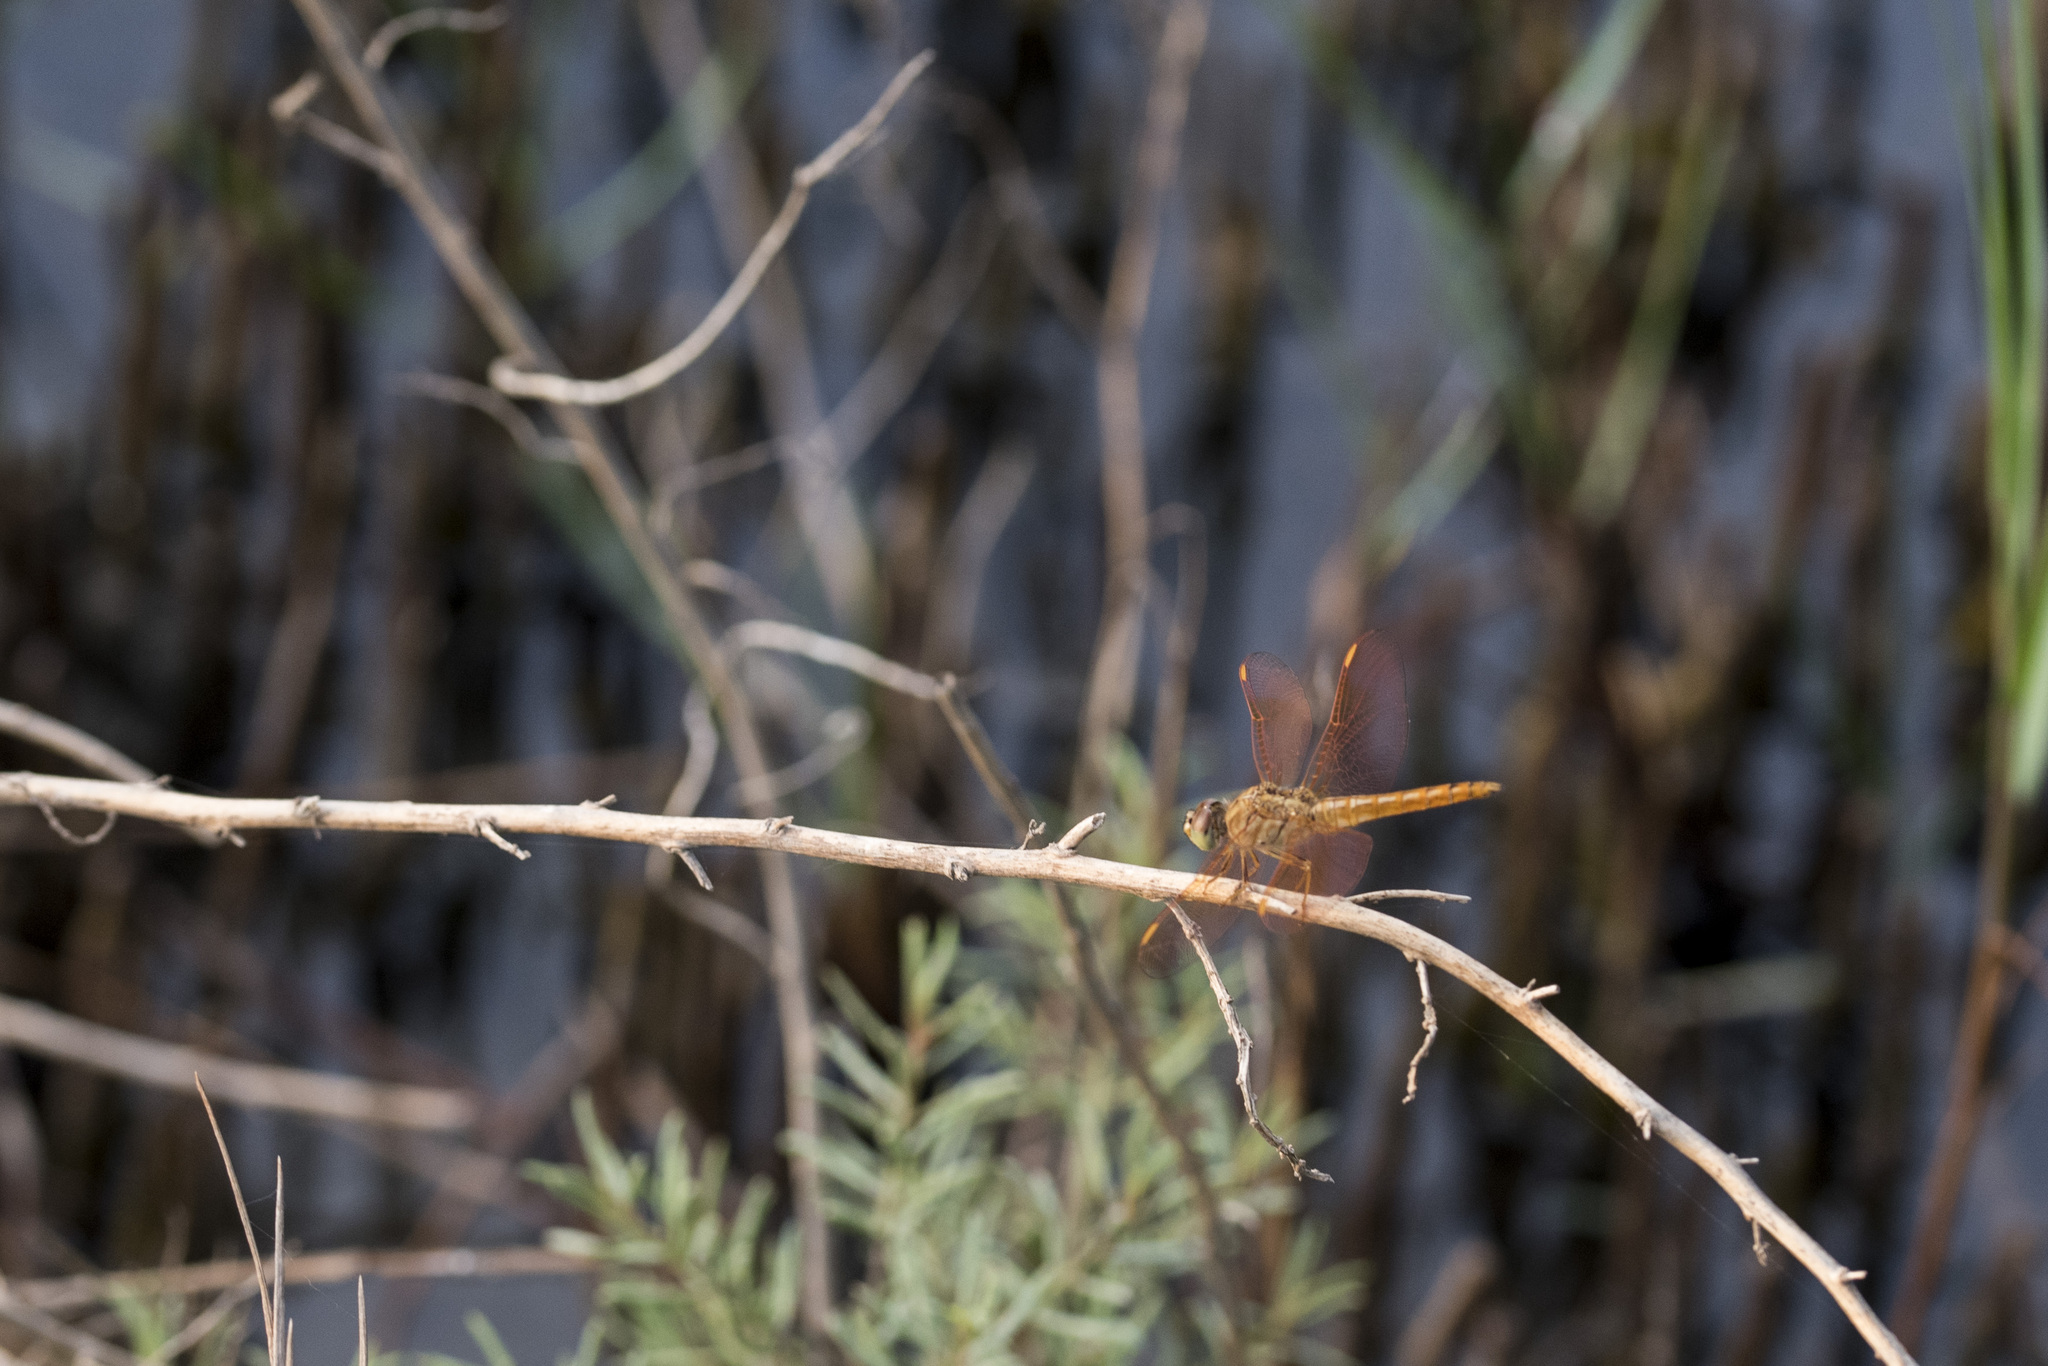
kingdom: Animalia
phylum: Arthropoda
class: Insecta
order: Odonata
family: Libellulidae
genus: Brachythemis
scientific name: Brachythemis contaminata
